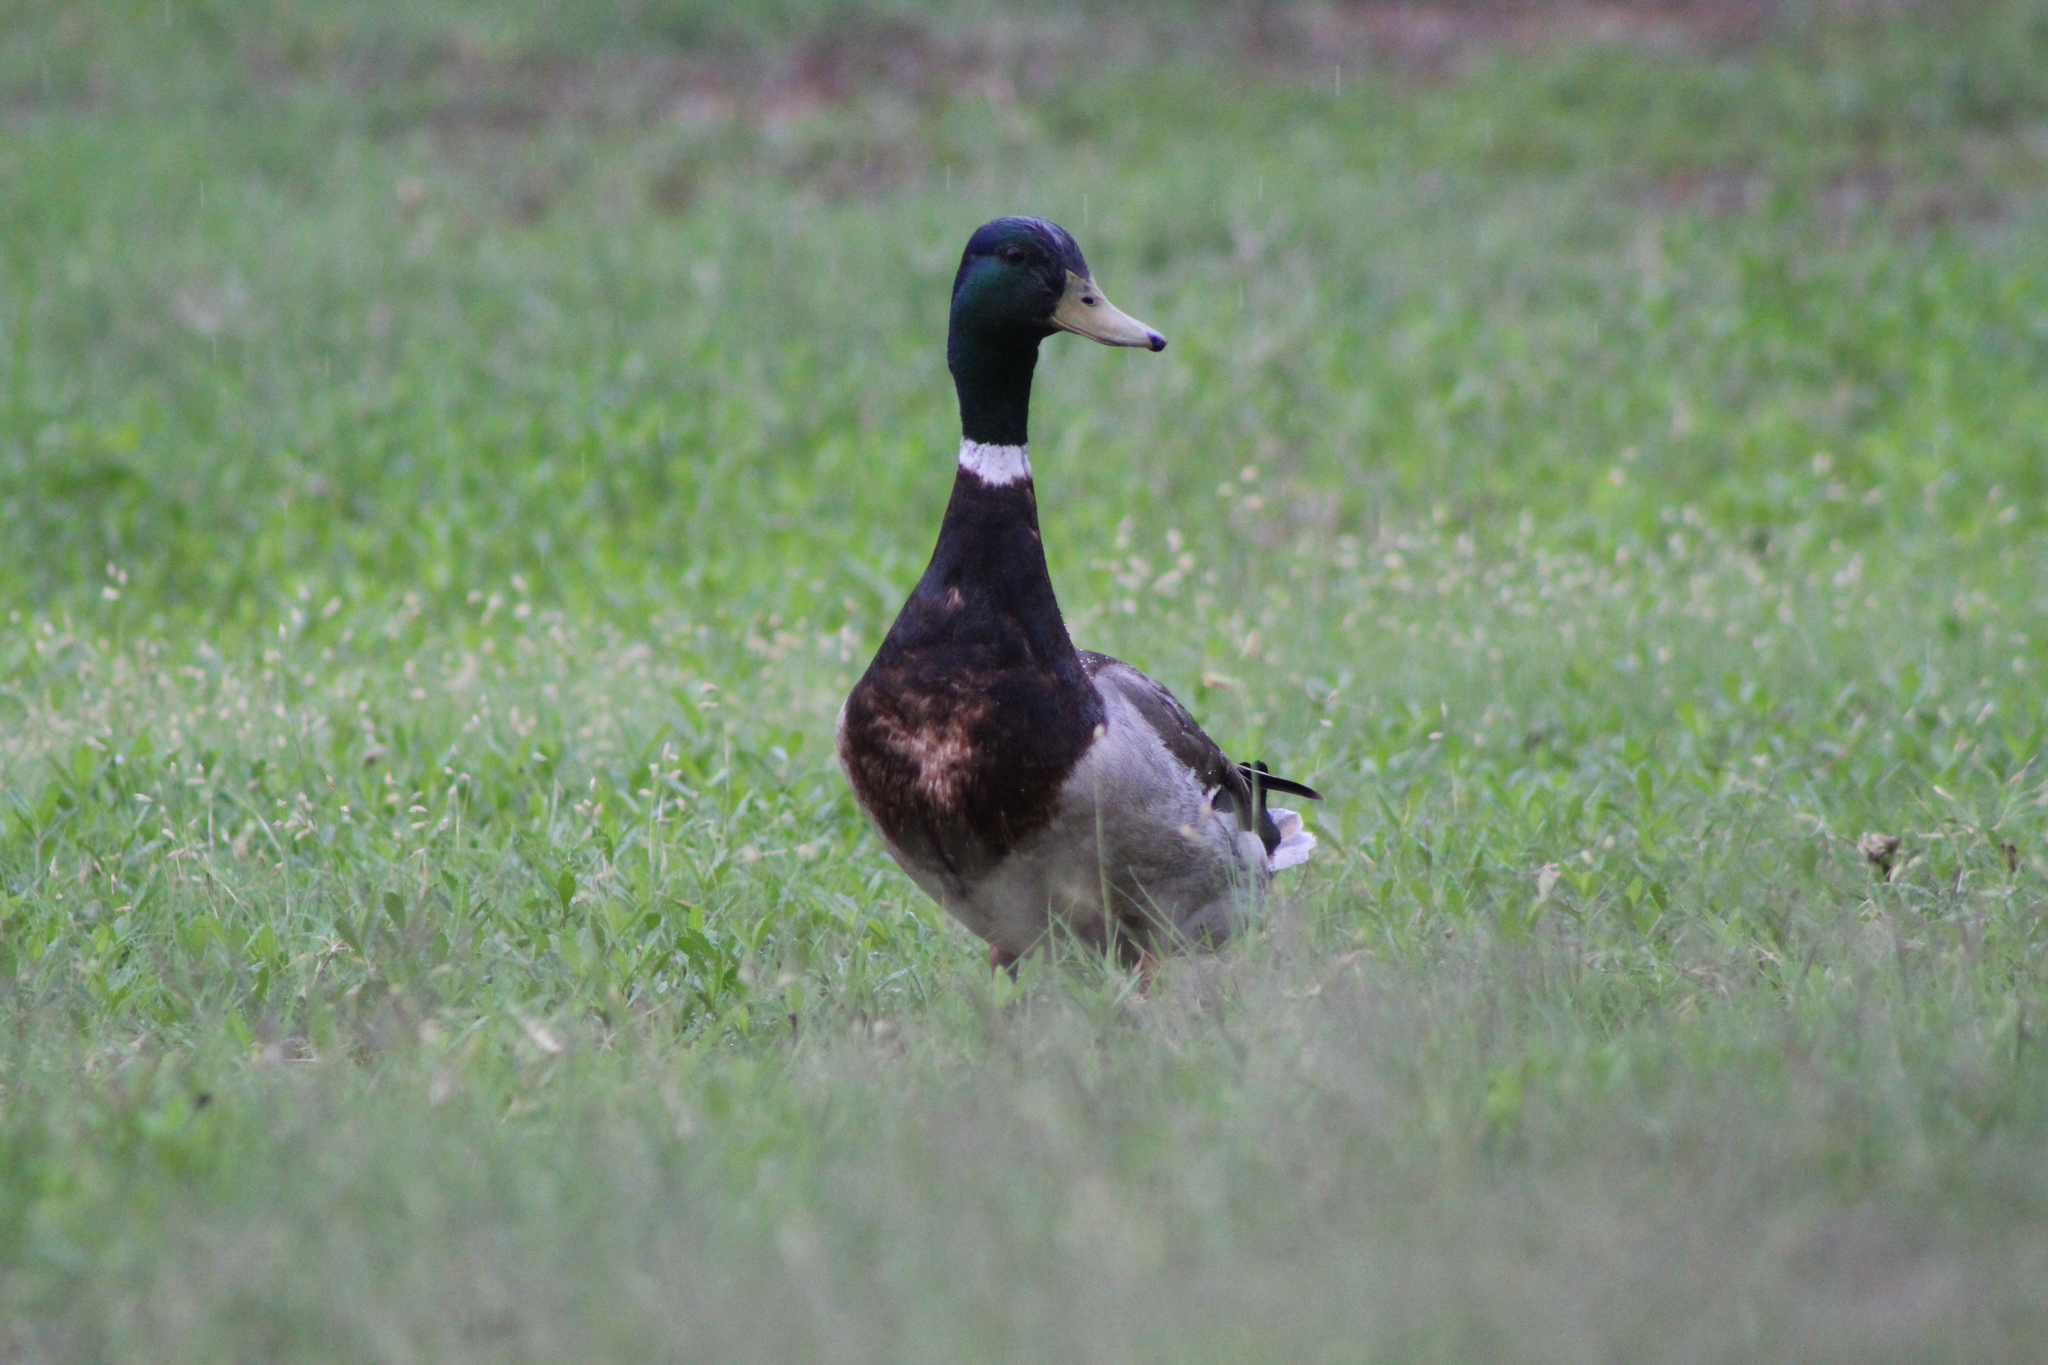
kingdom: Animalia
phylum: Chordata
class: Aves
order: Anseriformes
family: Anatidae
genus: Anas
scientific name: Anas platyrhynchos
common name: Mallard
